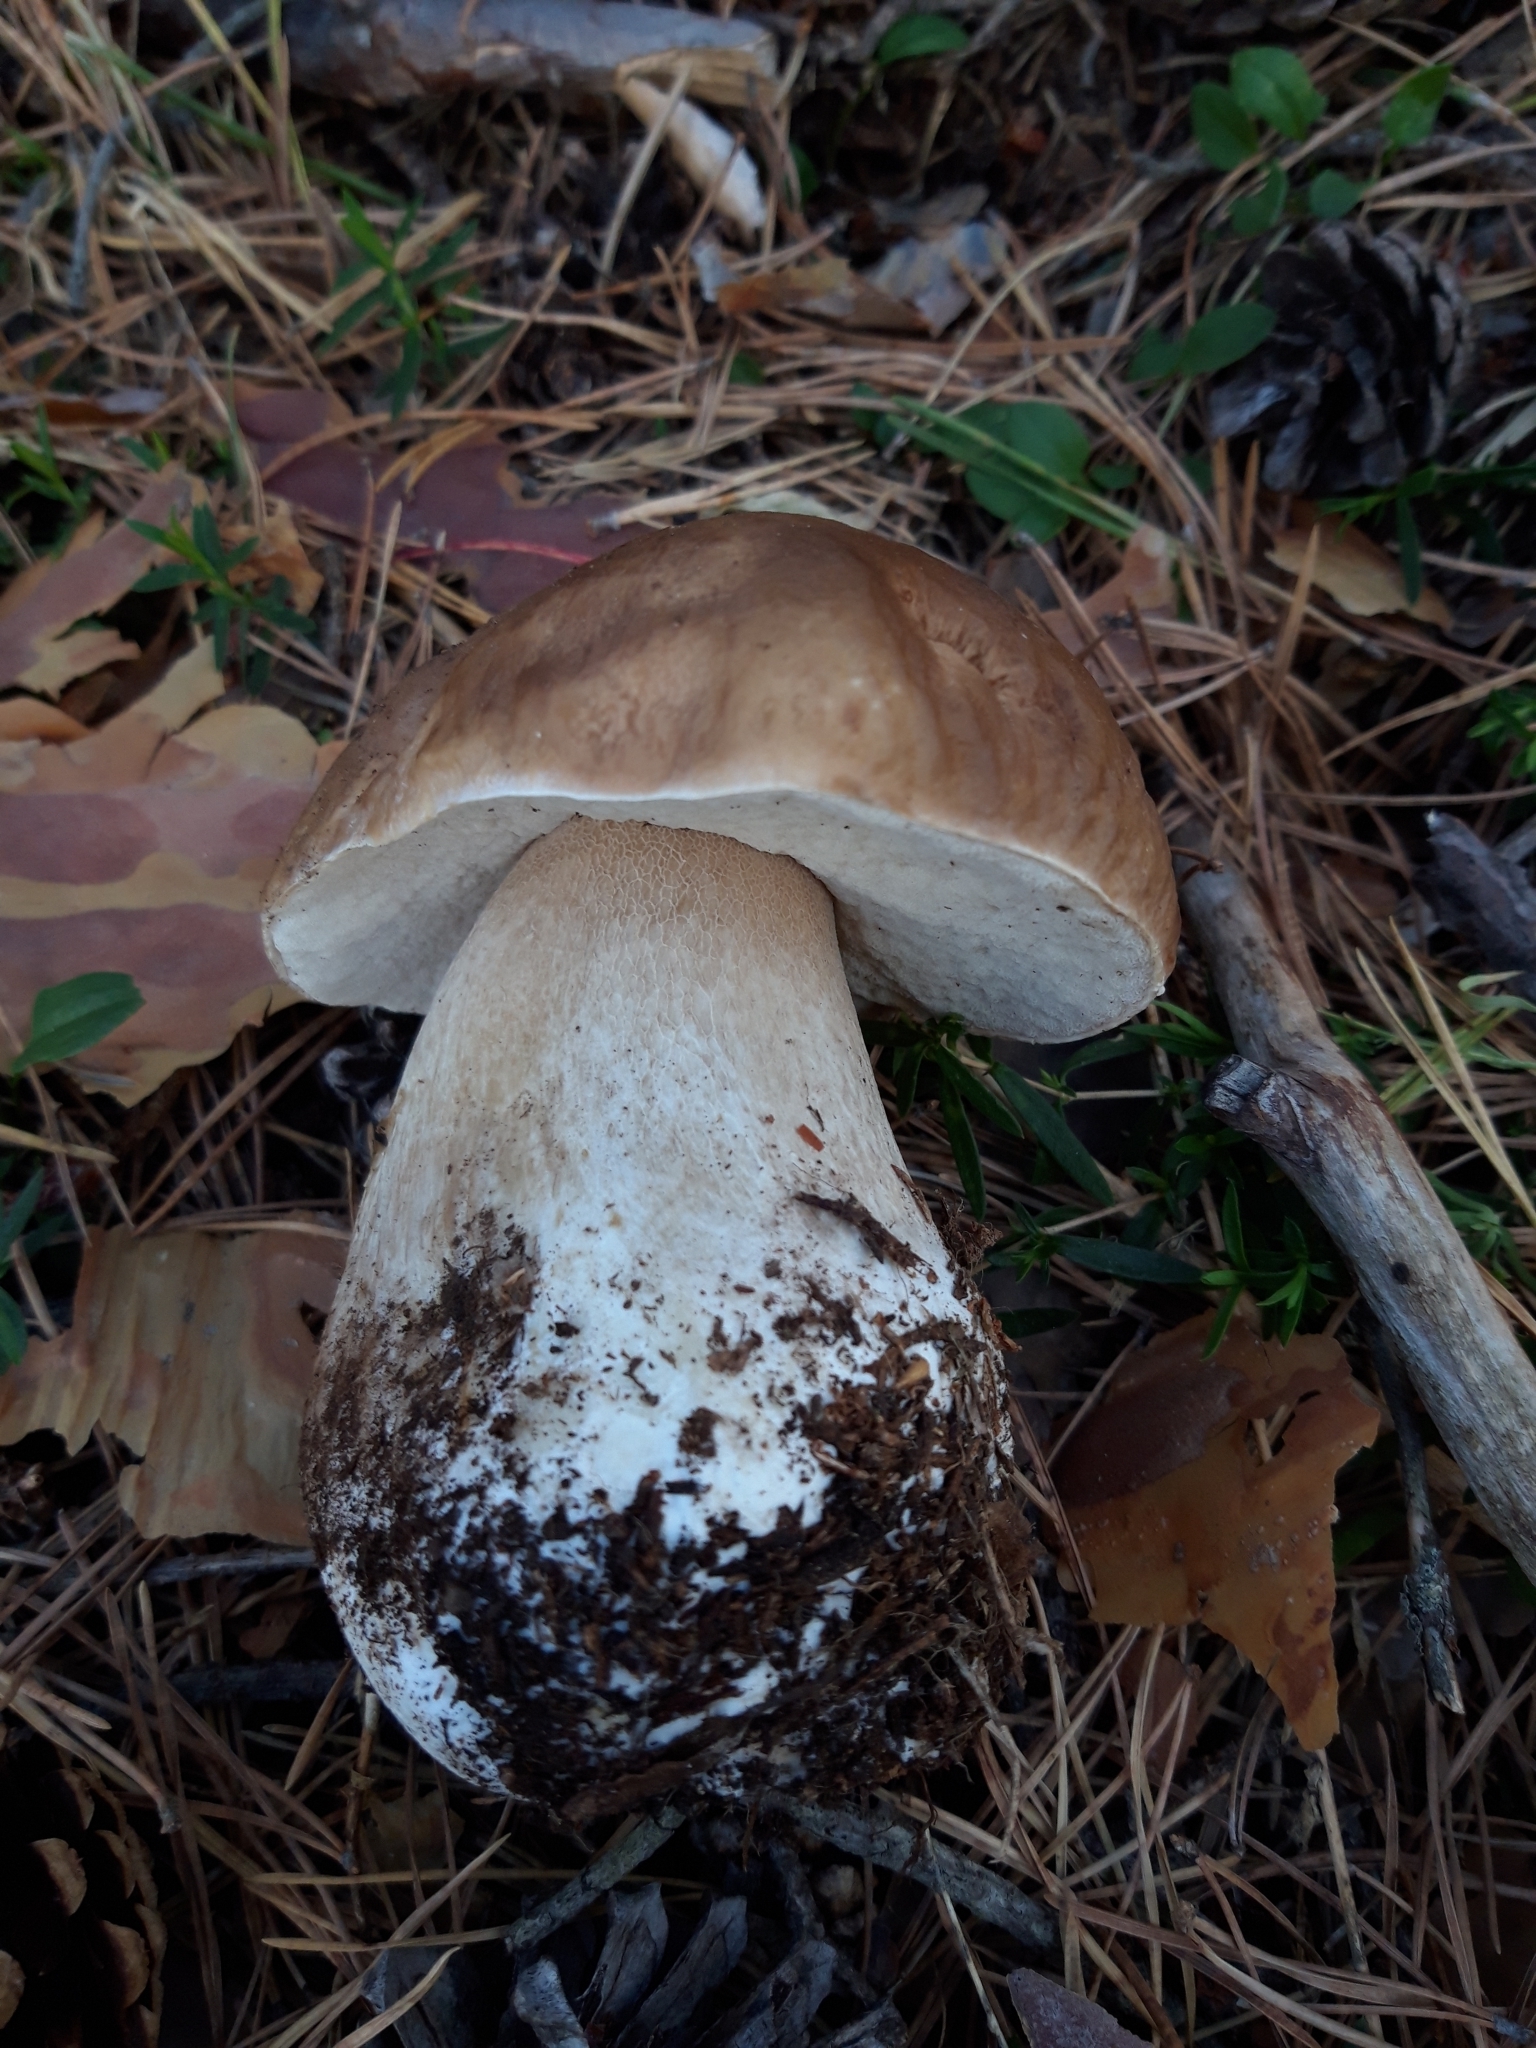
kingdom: Fungi
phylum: Basidiomycota
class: Agaricomycetes
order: Boletales
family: Boletaceae
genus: Boletus
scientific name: Boletus edulis
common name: Cep
